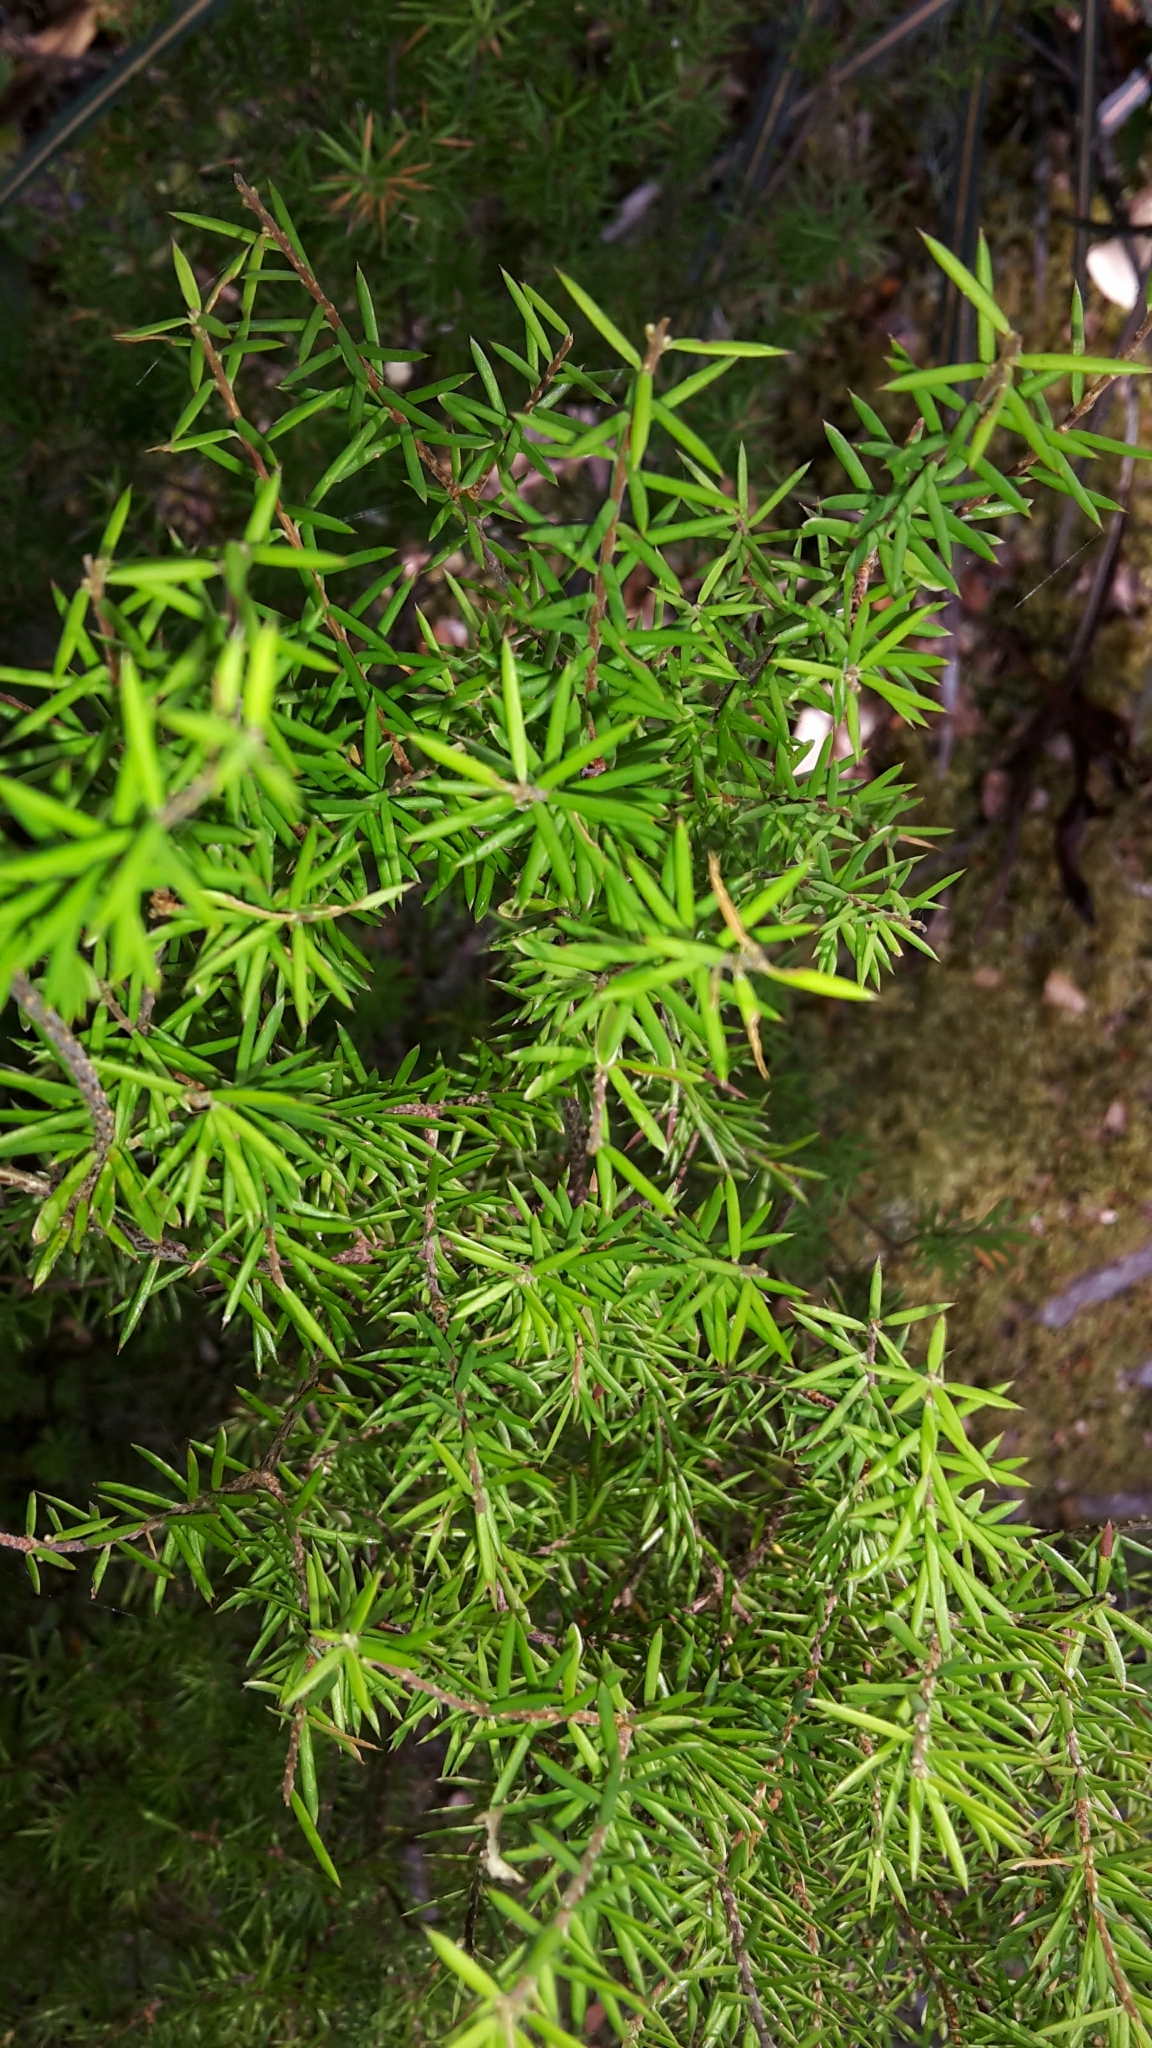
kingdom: Plantae
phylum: Tracheophyta
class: Magnoliopsida
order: Ericales
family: Ericaceae
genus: Leptecophylla
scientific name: Leptecophylla juniperina
